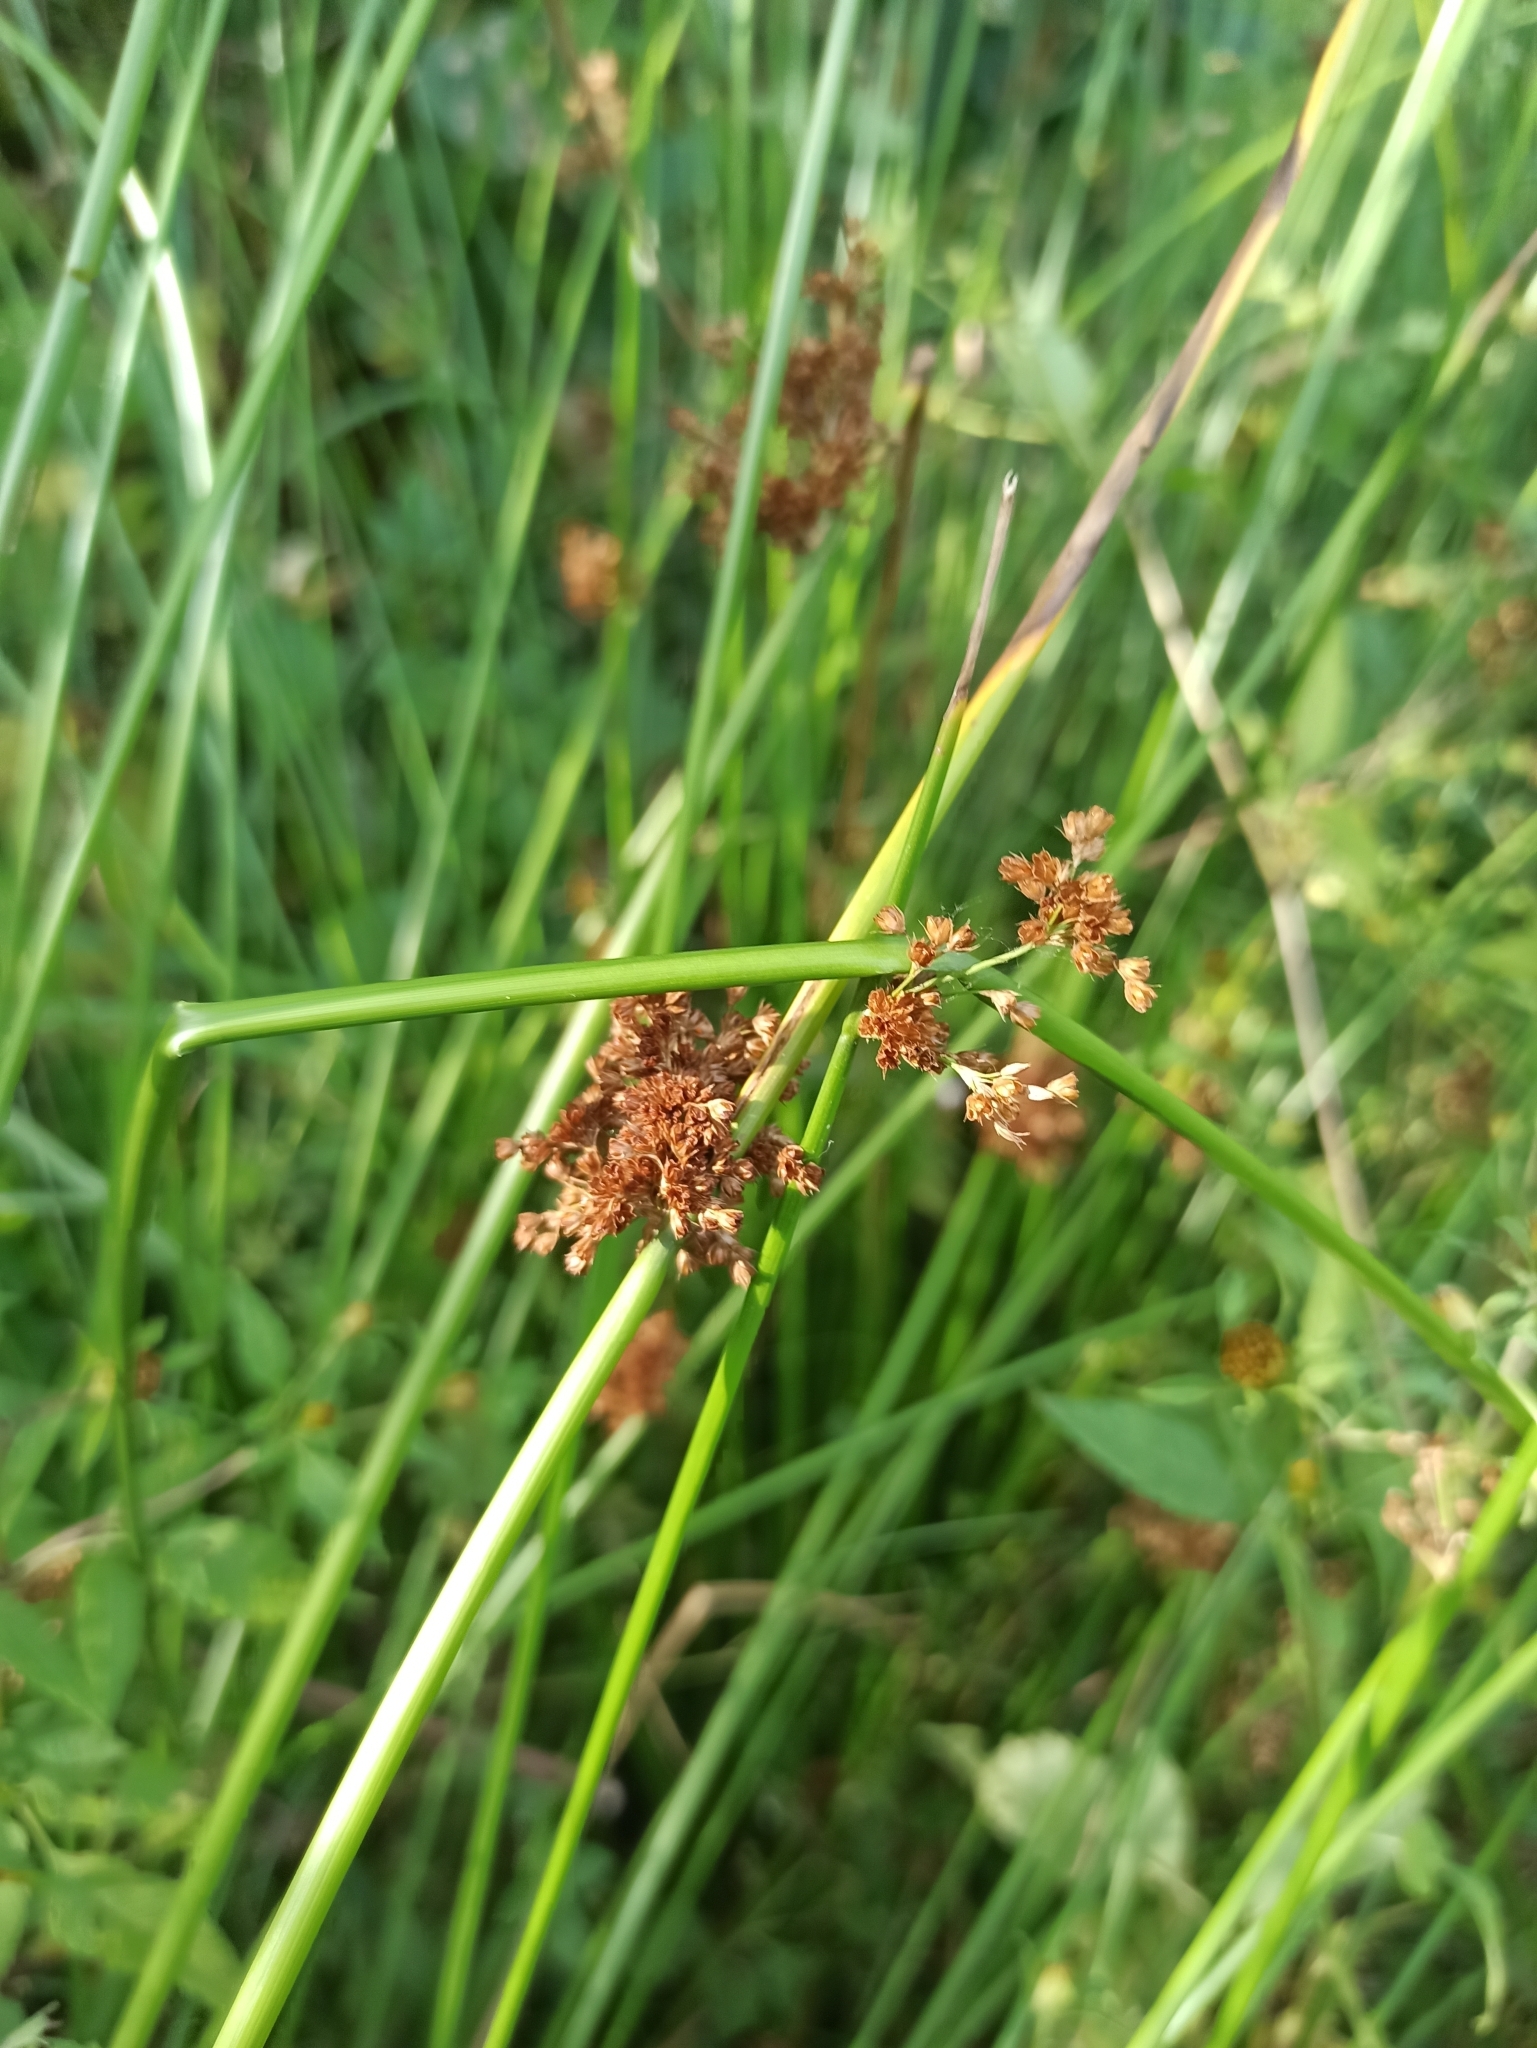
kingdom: Plantae
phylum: Tracheophyta
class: Liliopsida
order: Poales
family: Juncaceae
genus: Juncus
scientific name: Juncus effusus
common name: Soft rush
